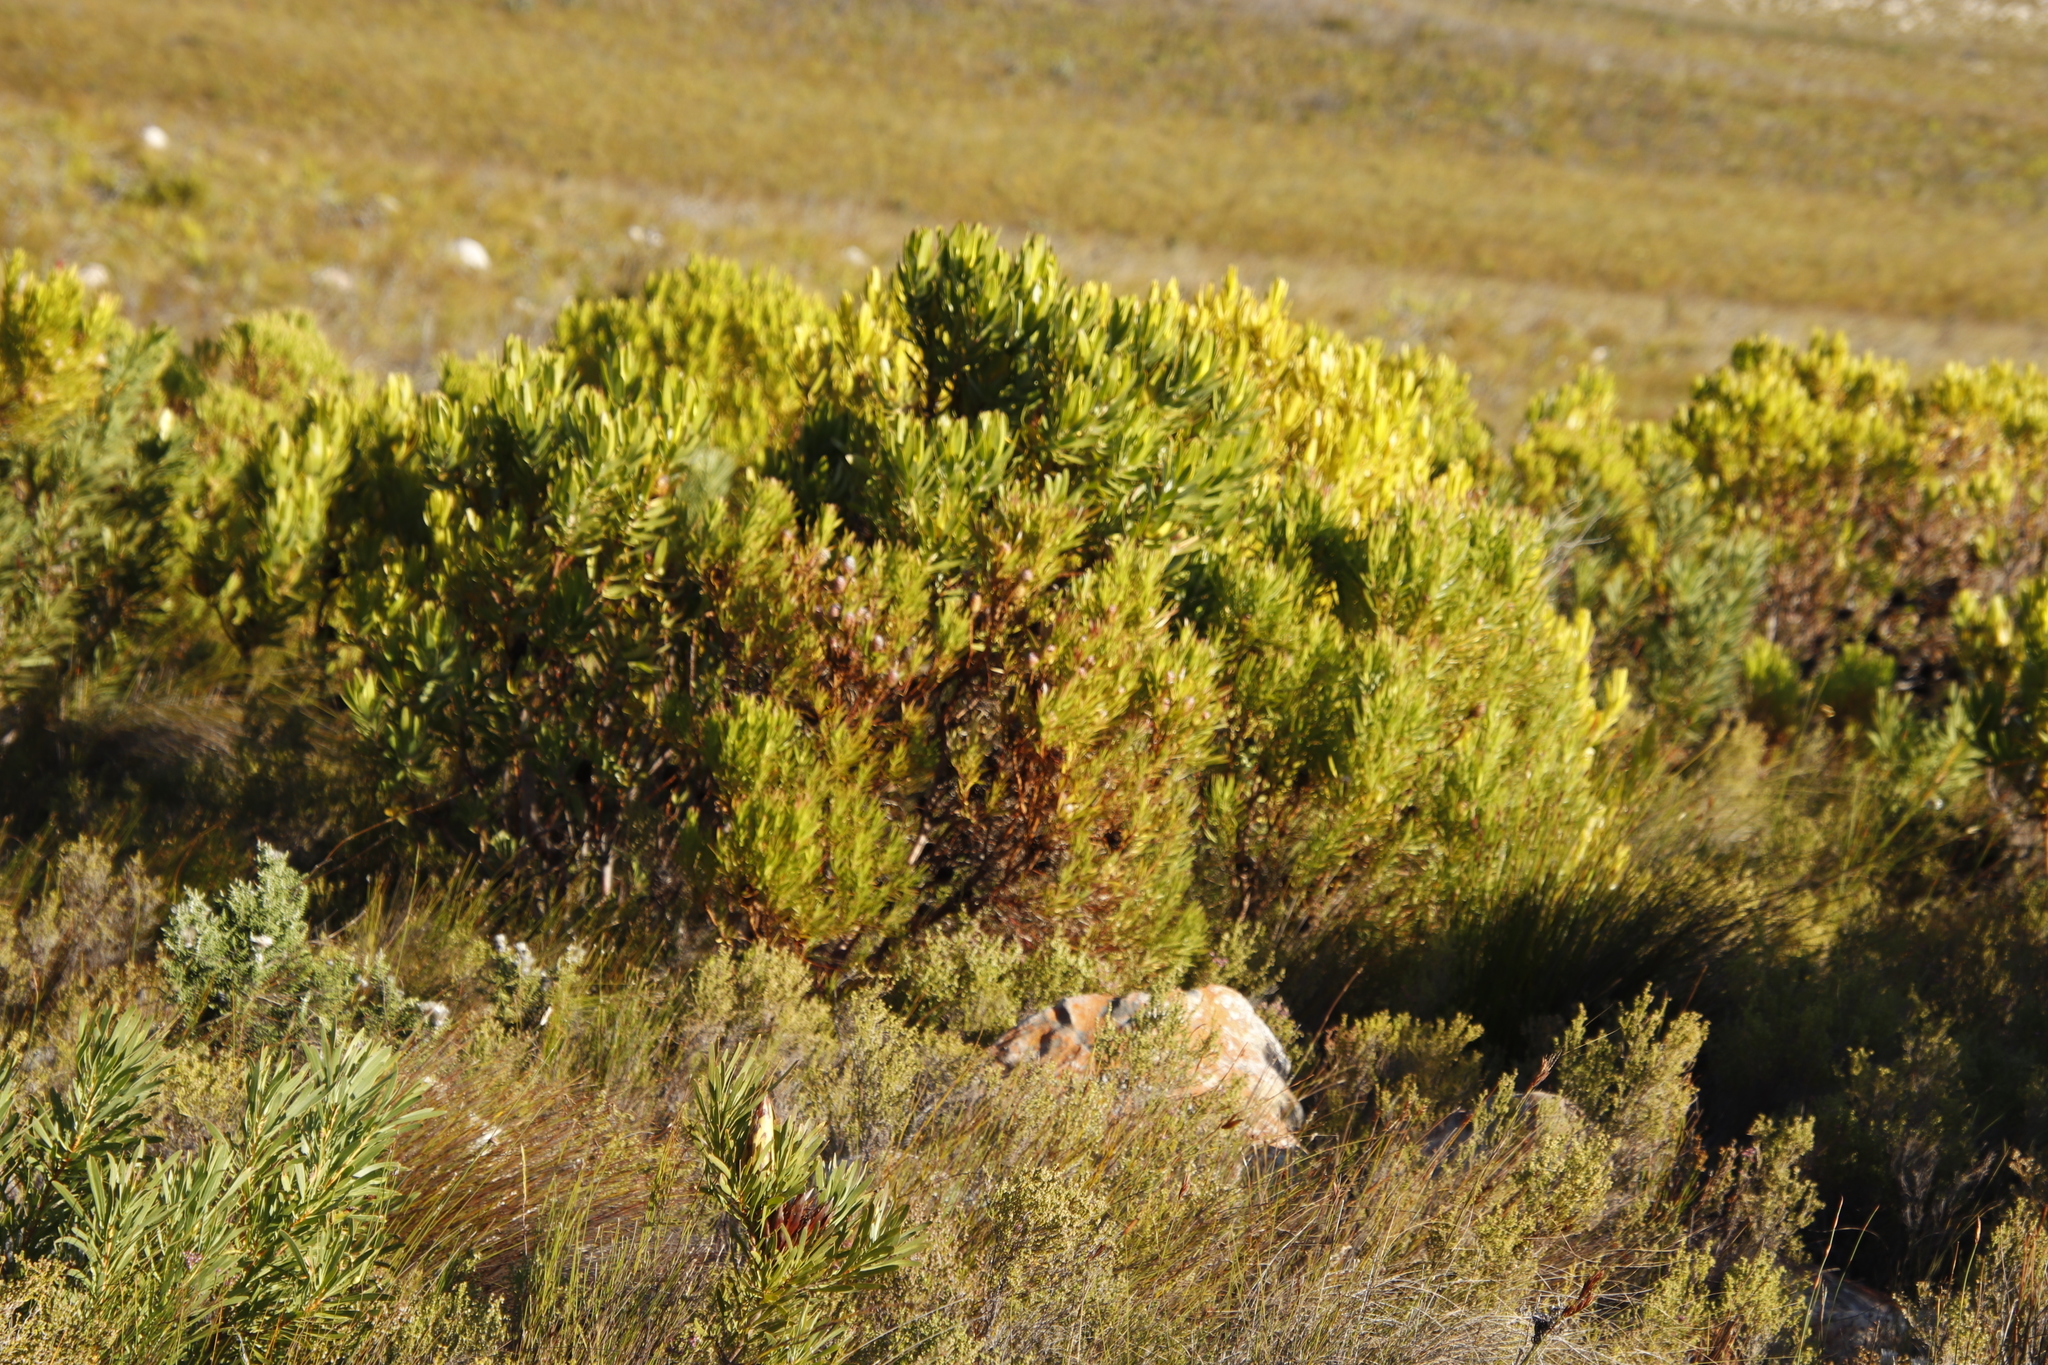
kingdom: Plantae
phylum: Tracheophyta
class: Magnoliopsida
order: Proteales
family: Proteaceae
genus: Leucadendron
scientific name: Leucadendron laureolum
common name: Golden sunshinebush
